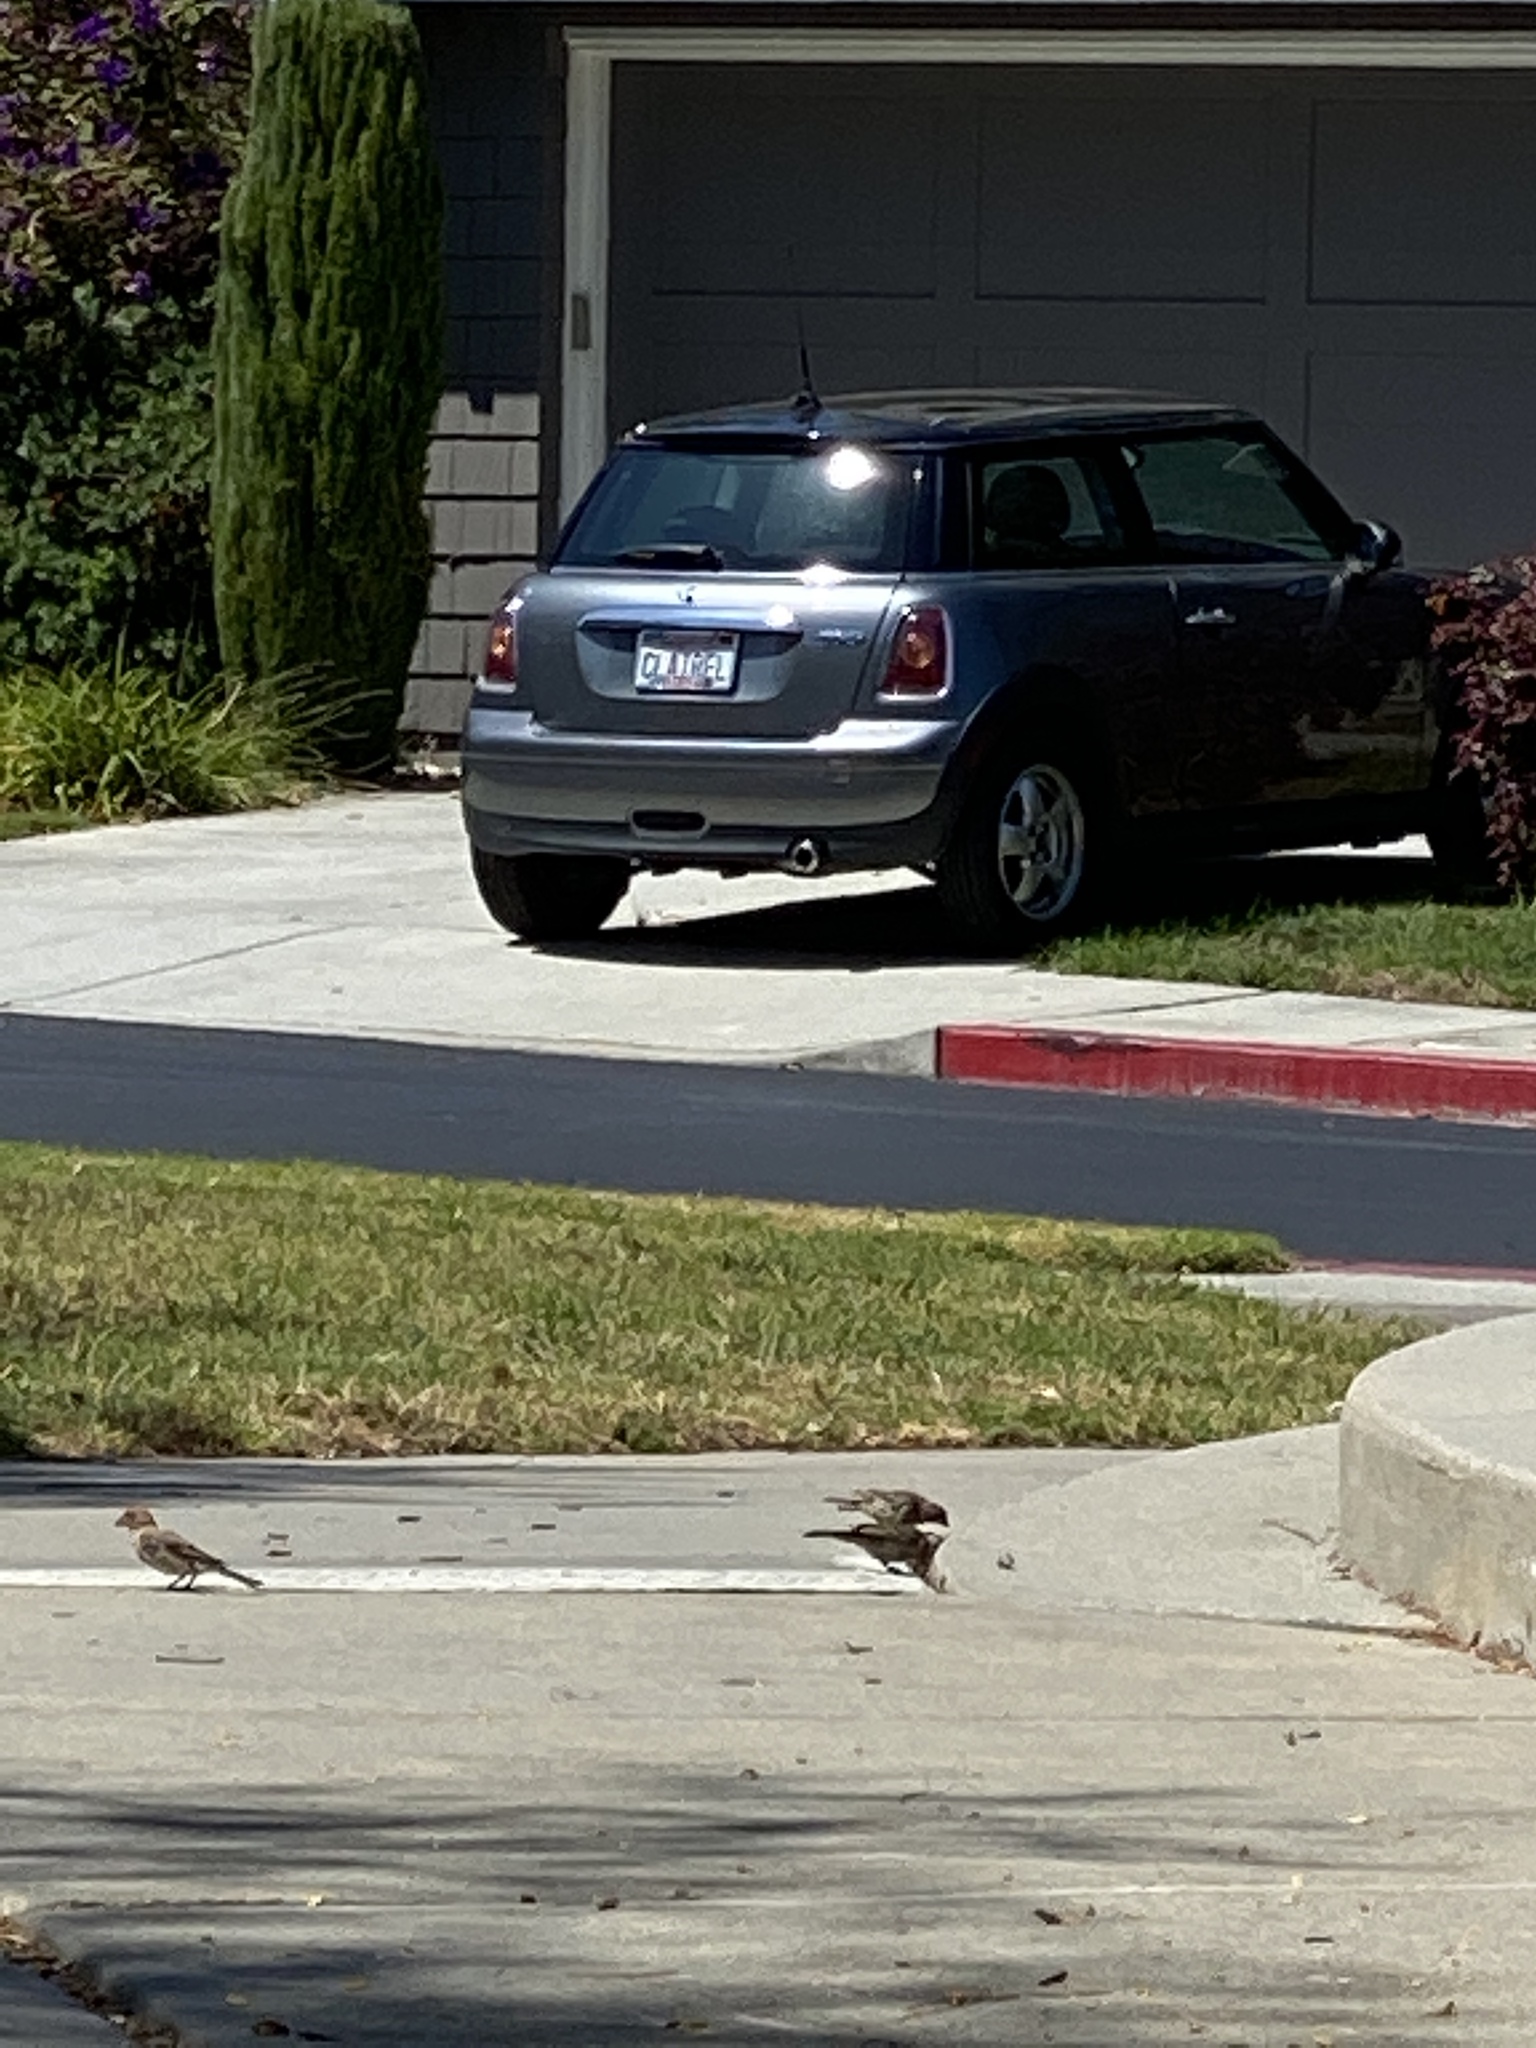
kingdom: Animalia
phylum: Chordata
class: Aves
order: Passeriformes
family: Passeridae
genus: Passer
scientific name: Passer domesticus
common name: House sparrow
